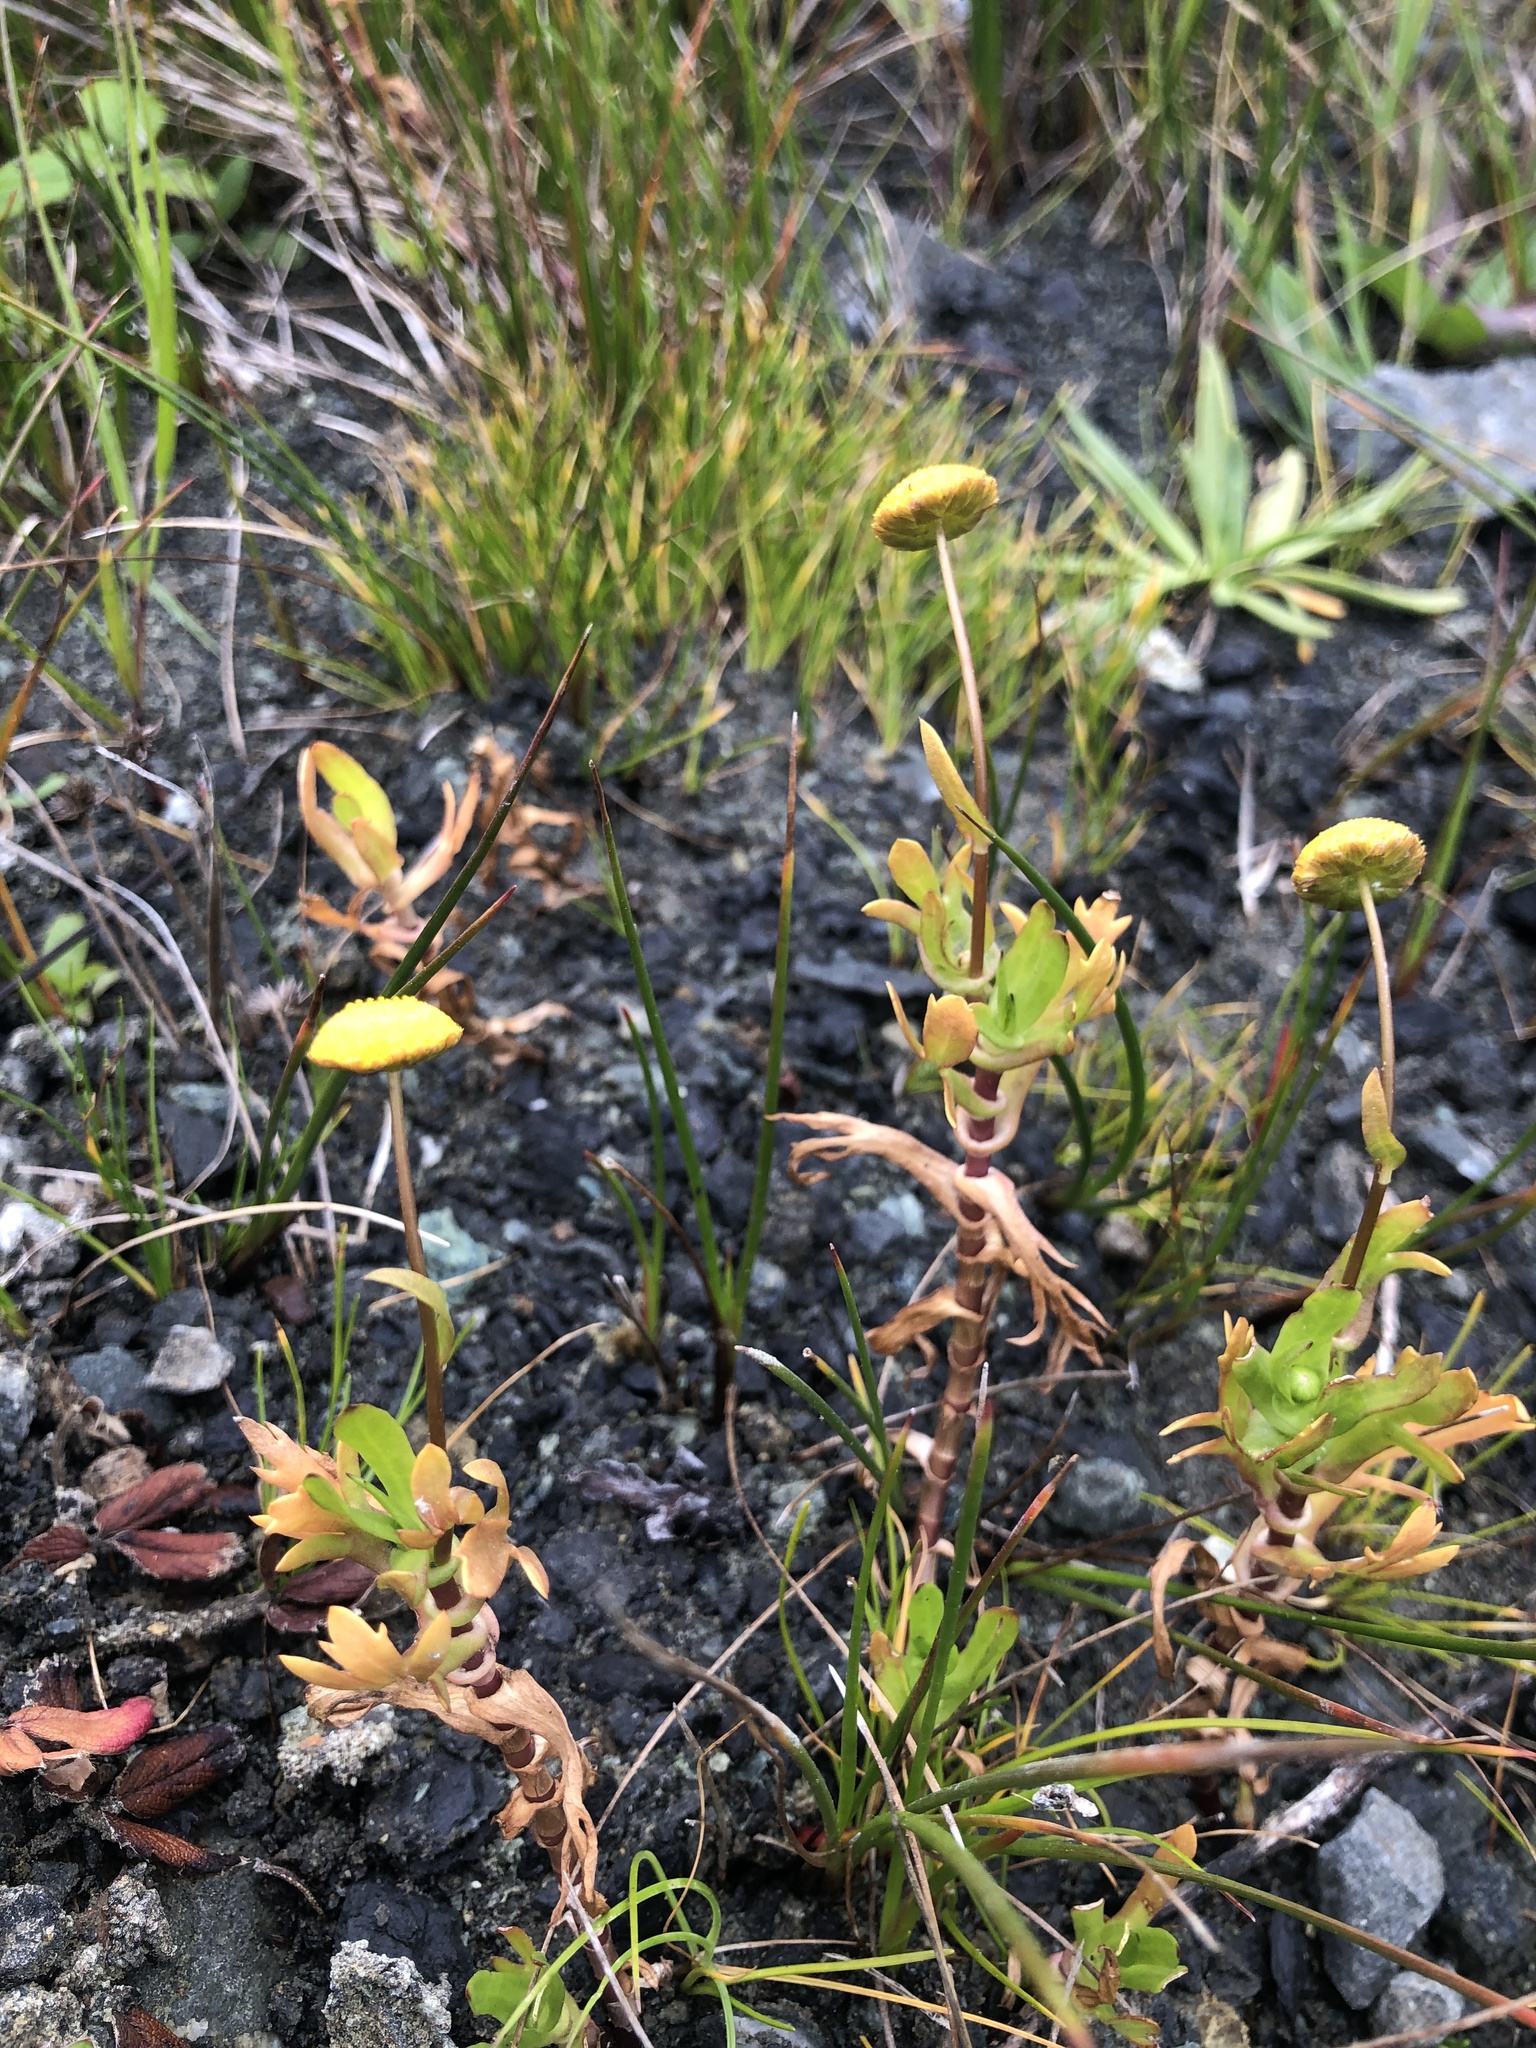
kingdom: Plantae
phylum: Tracheophyta
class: Magnoliopsida
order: Asterales
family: Asteraceae
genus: Cotula
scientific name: Cotula coronopifolia
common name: Buttonweed
